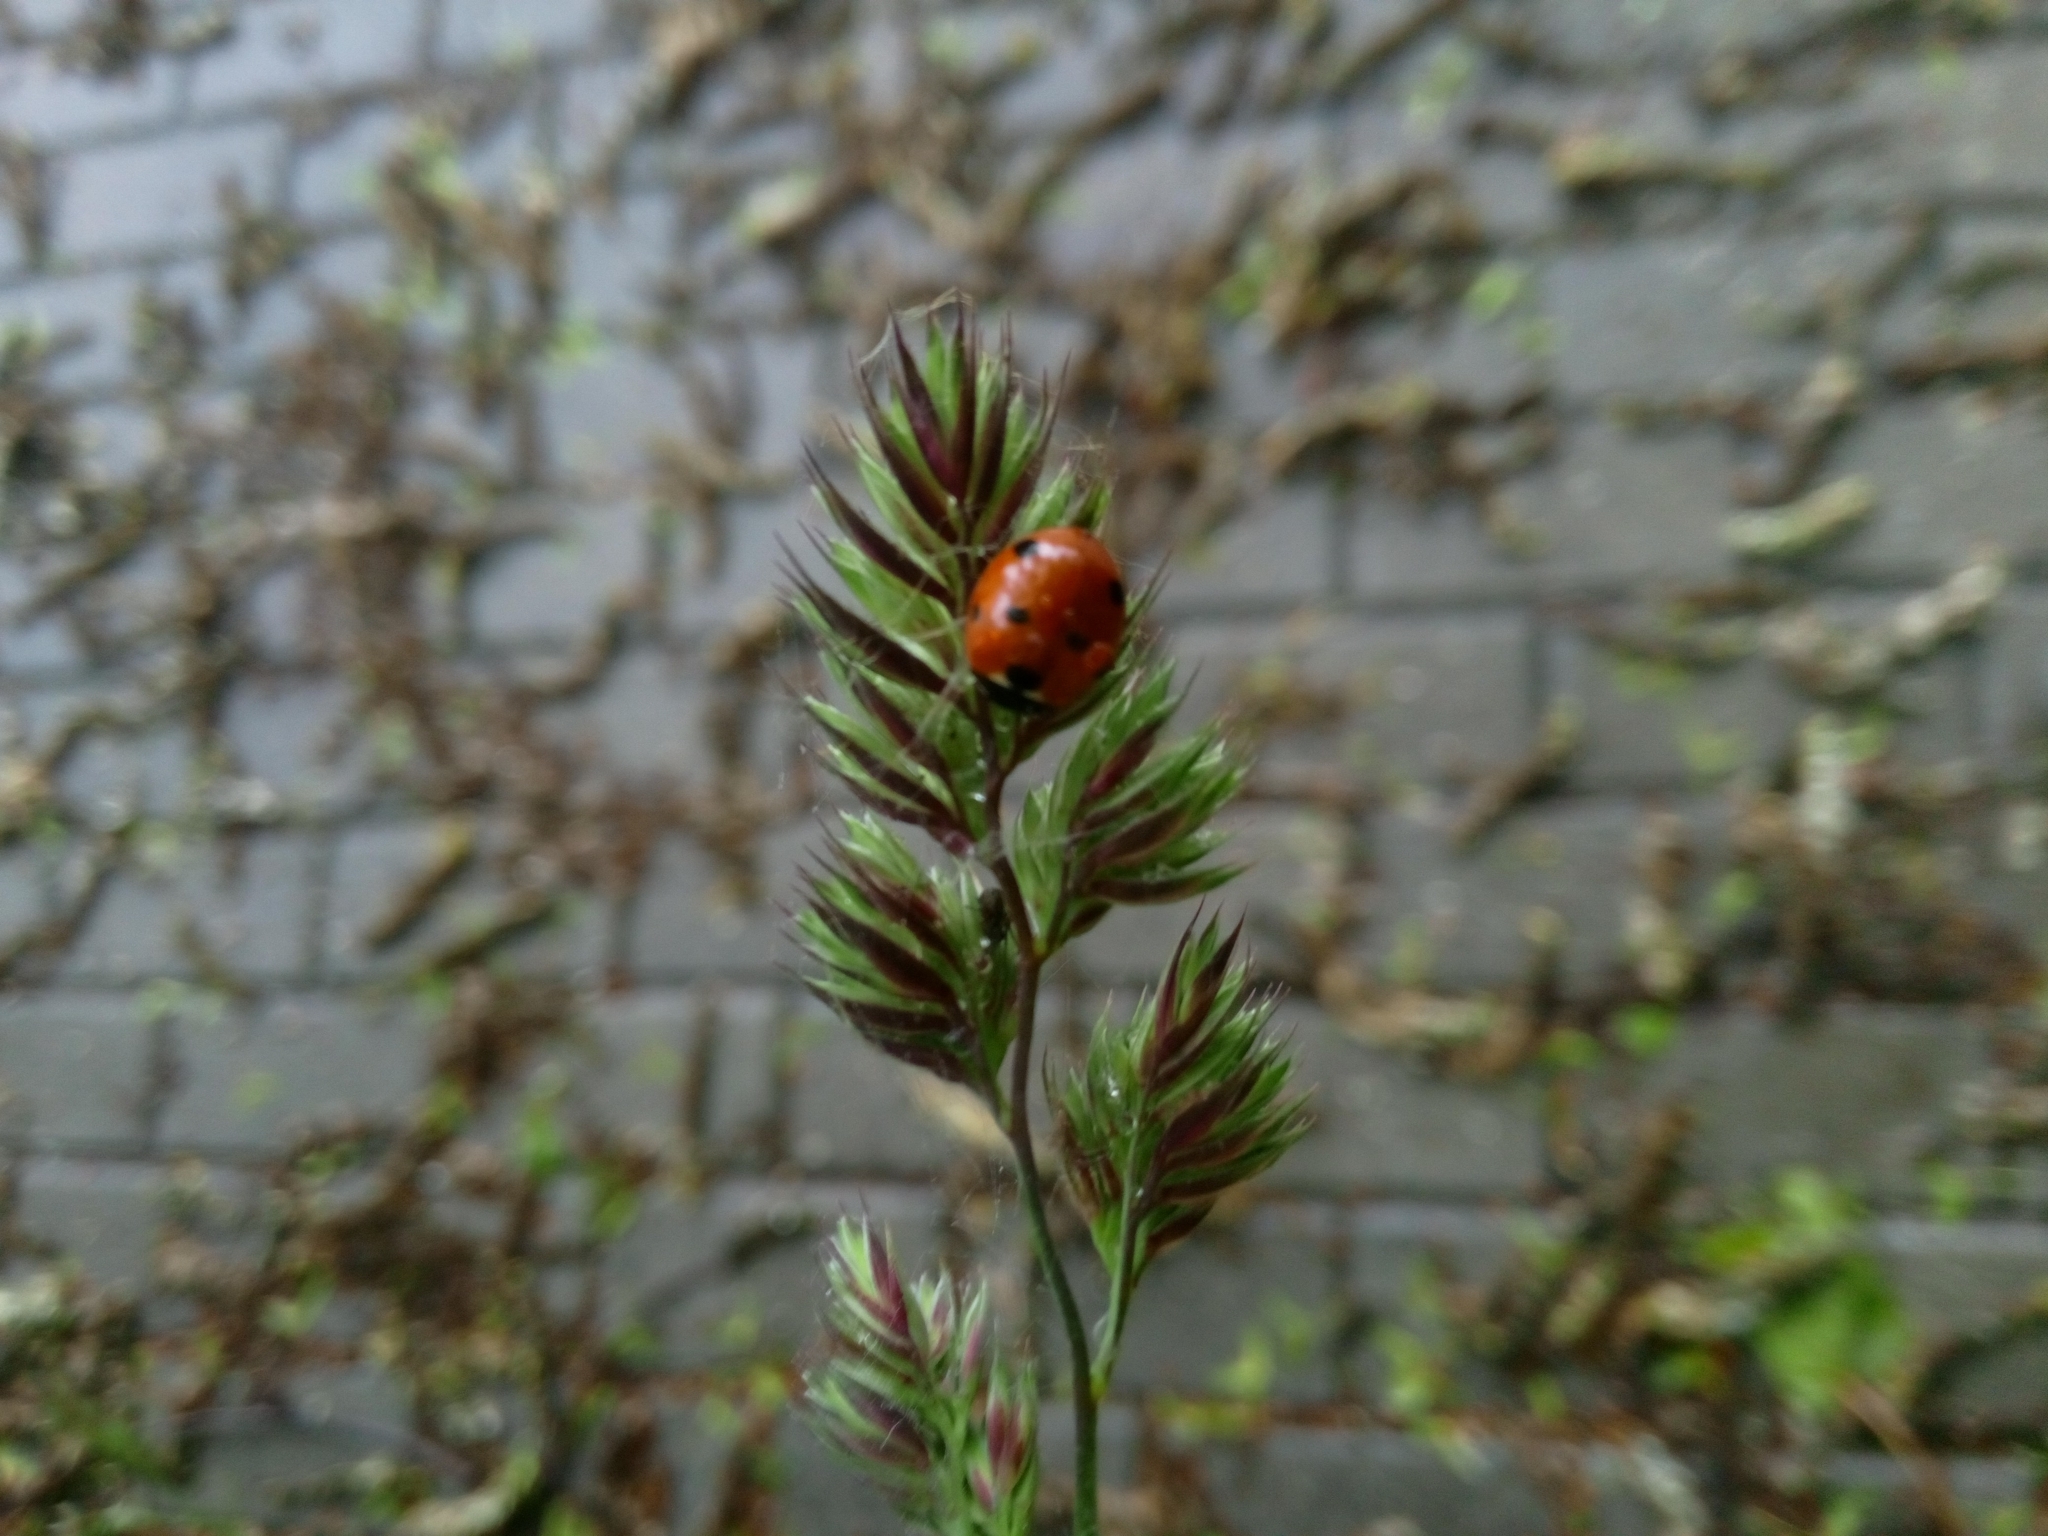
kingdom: Animalia
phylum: Arthropoda
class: Insecta
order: Coleoptera
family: Coccinellidae
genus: Coccinella
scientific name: Coccinella septempunctata
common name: Sevenspotted lady beetle
